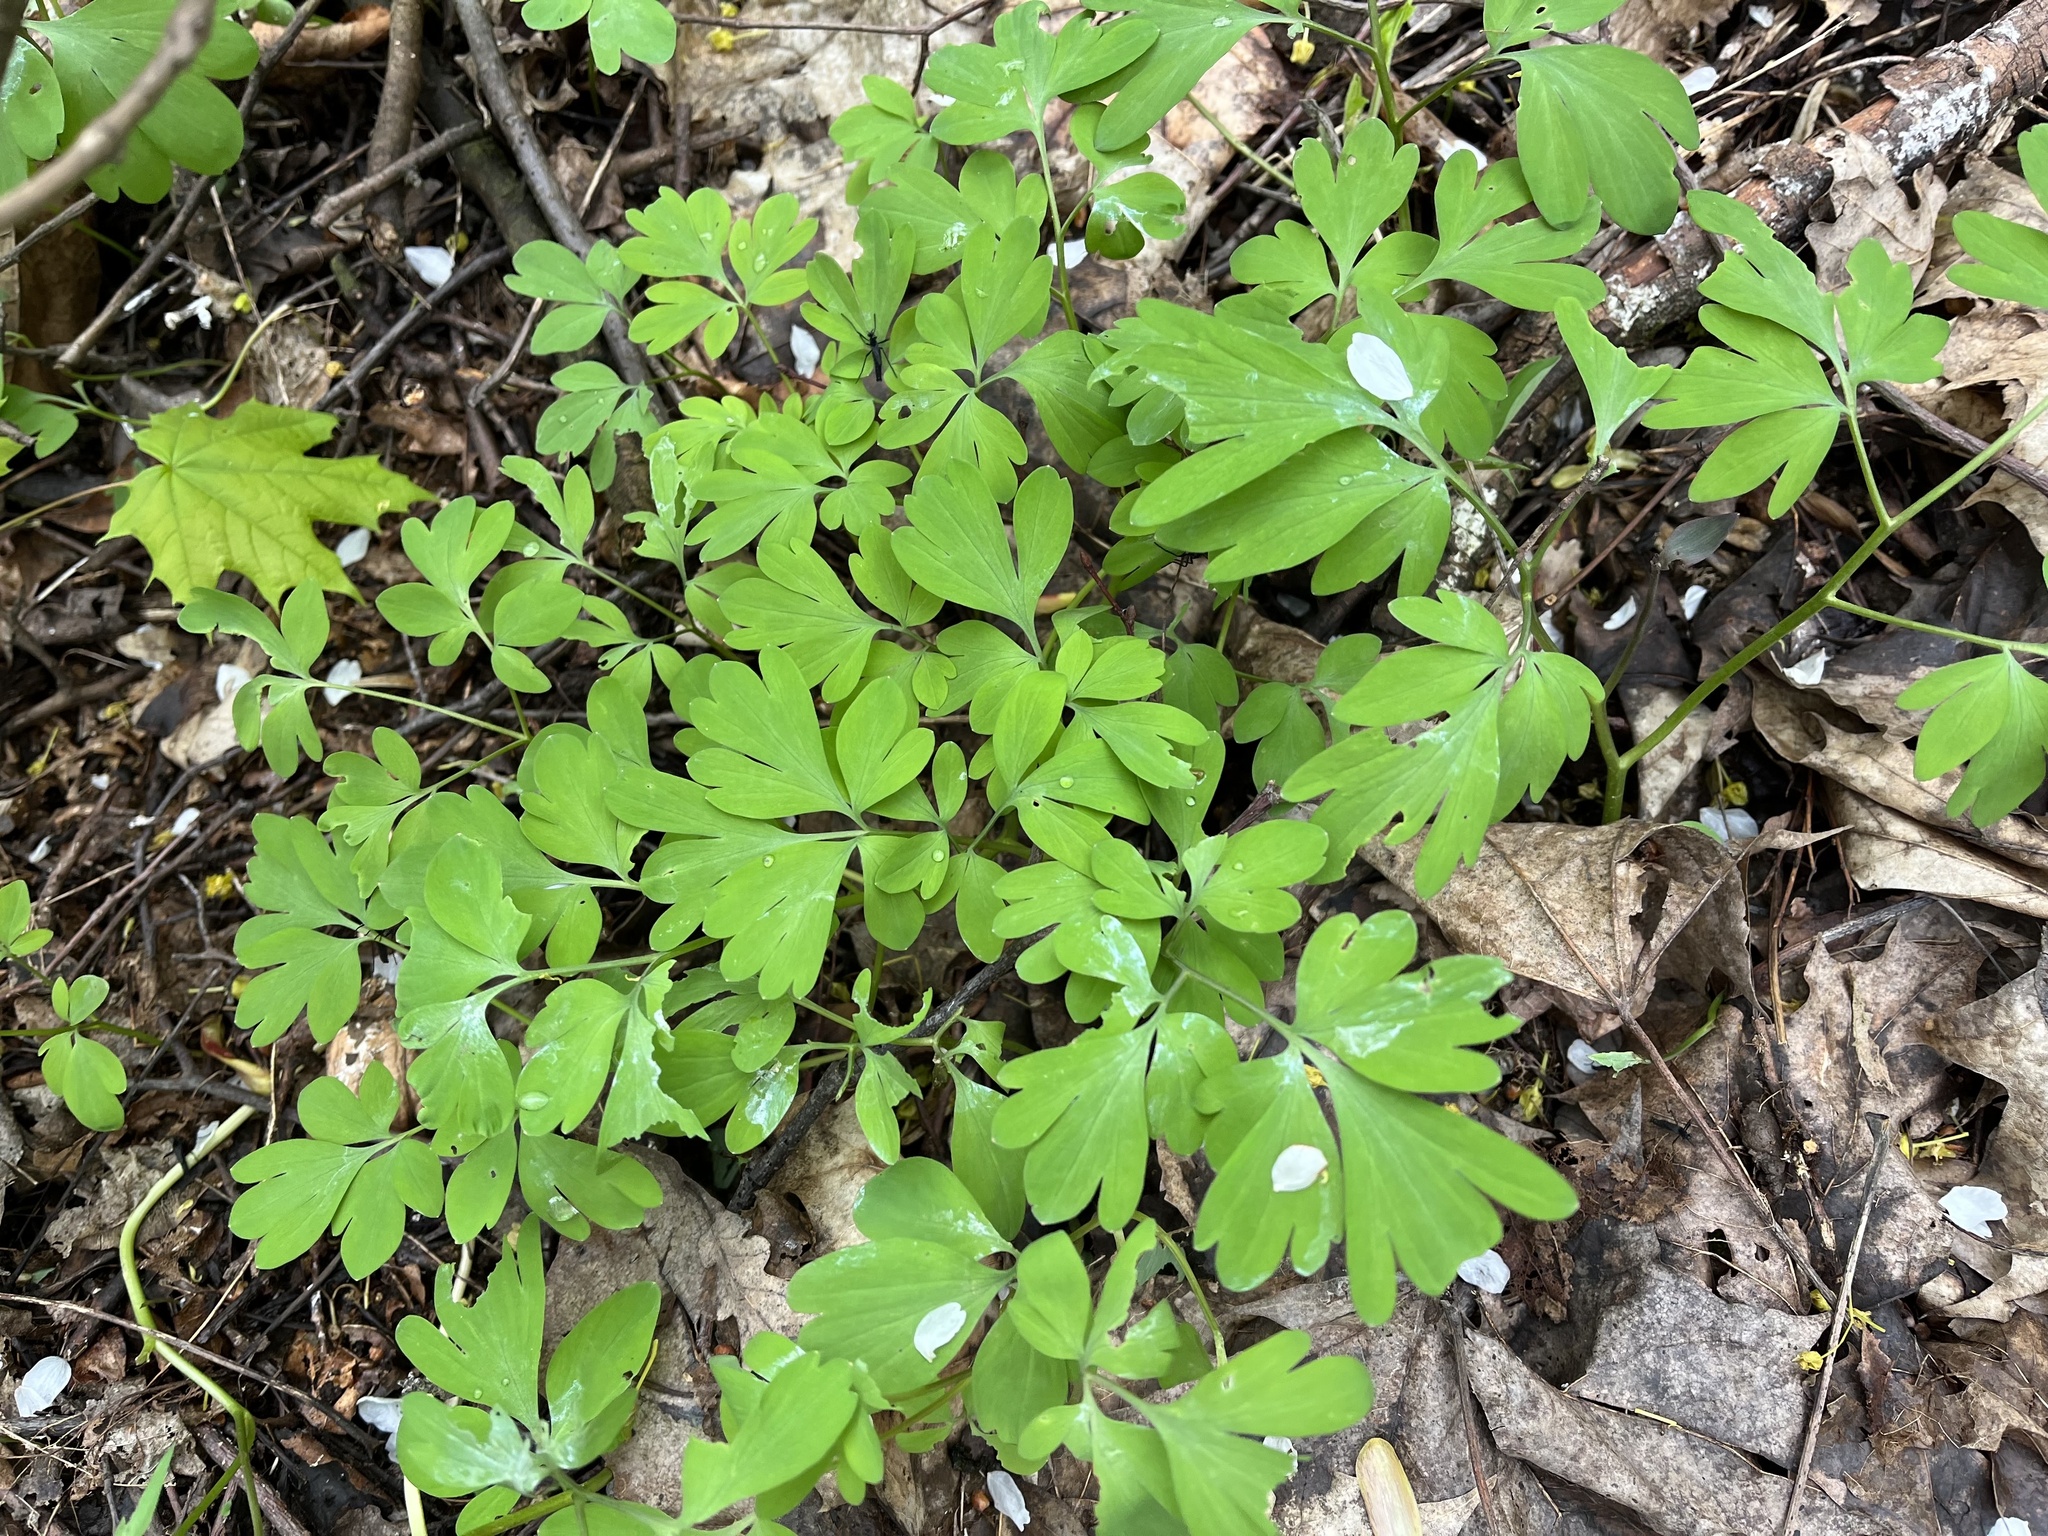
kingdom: Plantae
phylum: Tracheophyta
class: Magnoliopsida
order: Ranunculales
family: Papaveraceae
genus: Corydalis
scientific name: Corydalis cava
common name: Hollowroot
